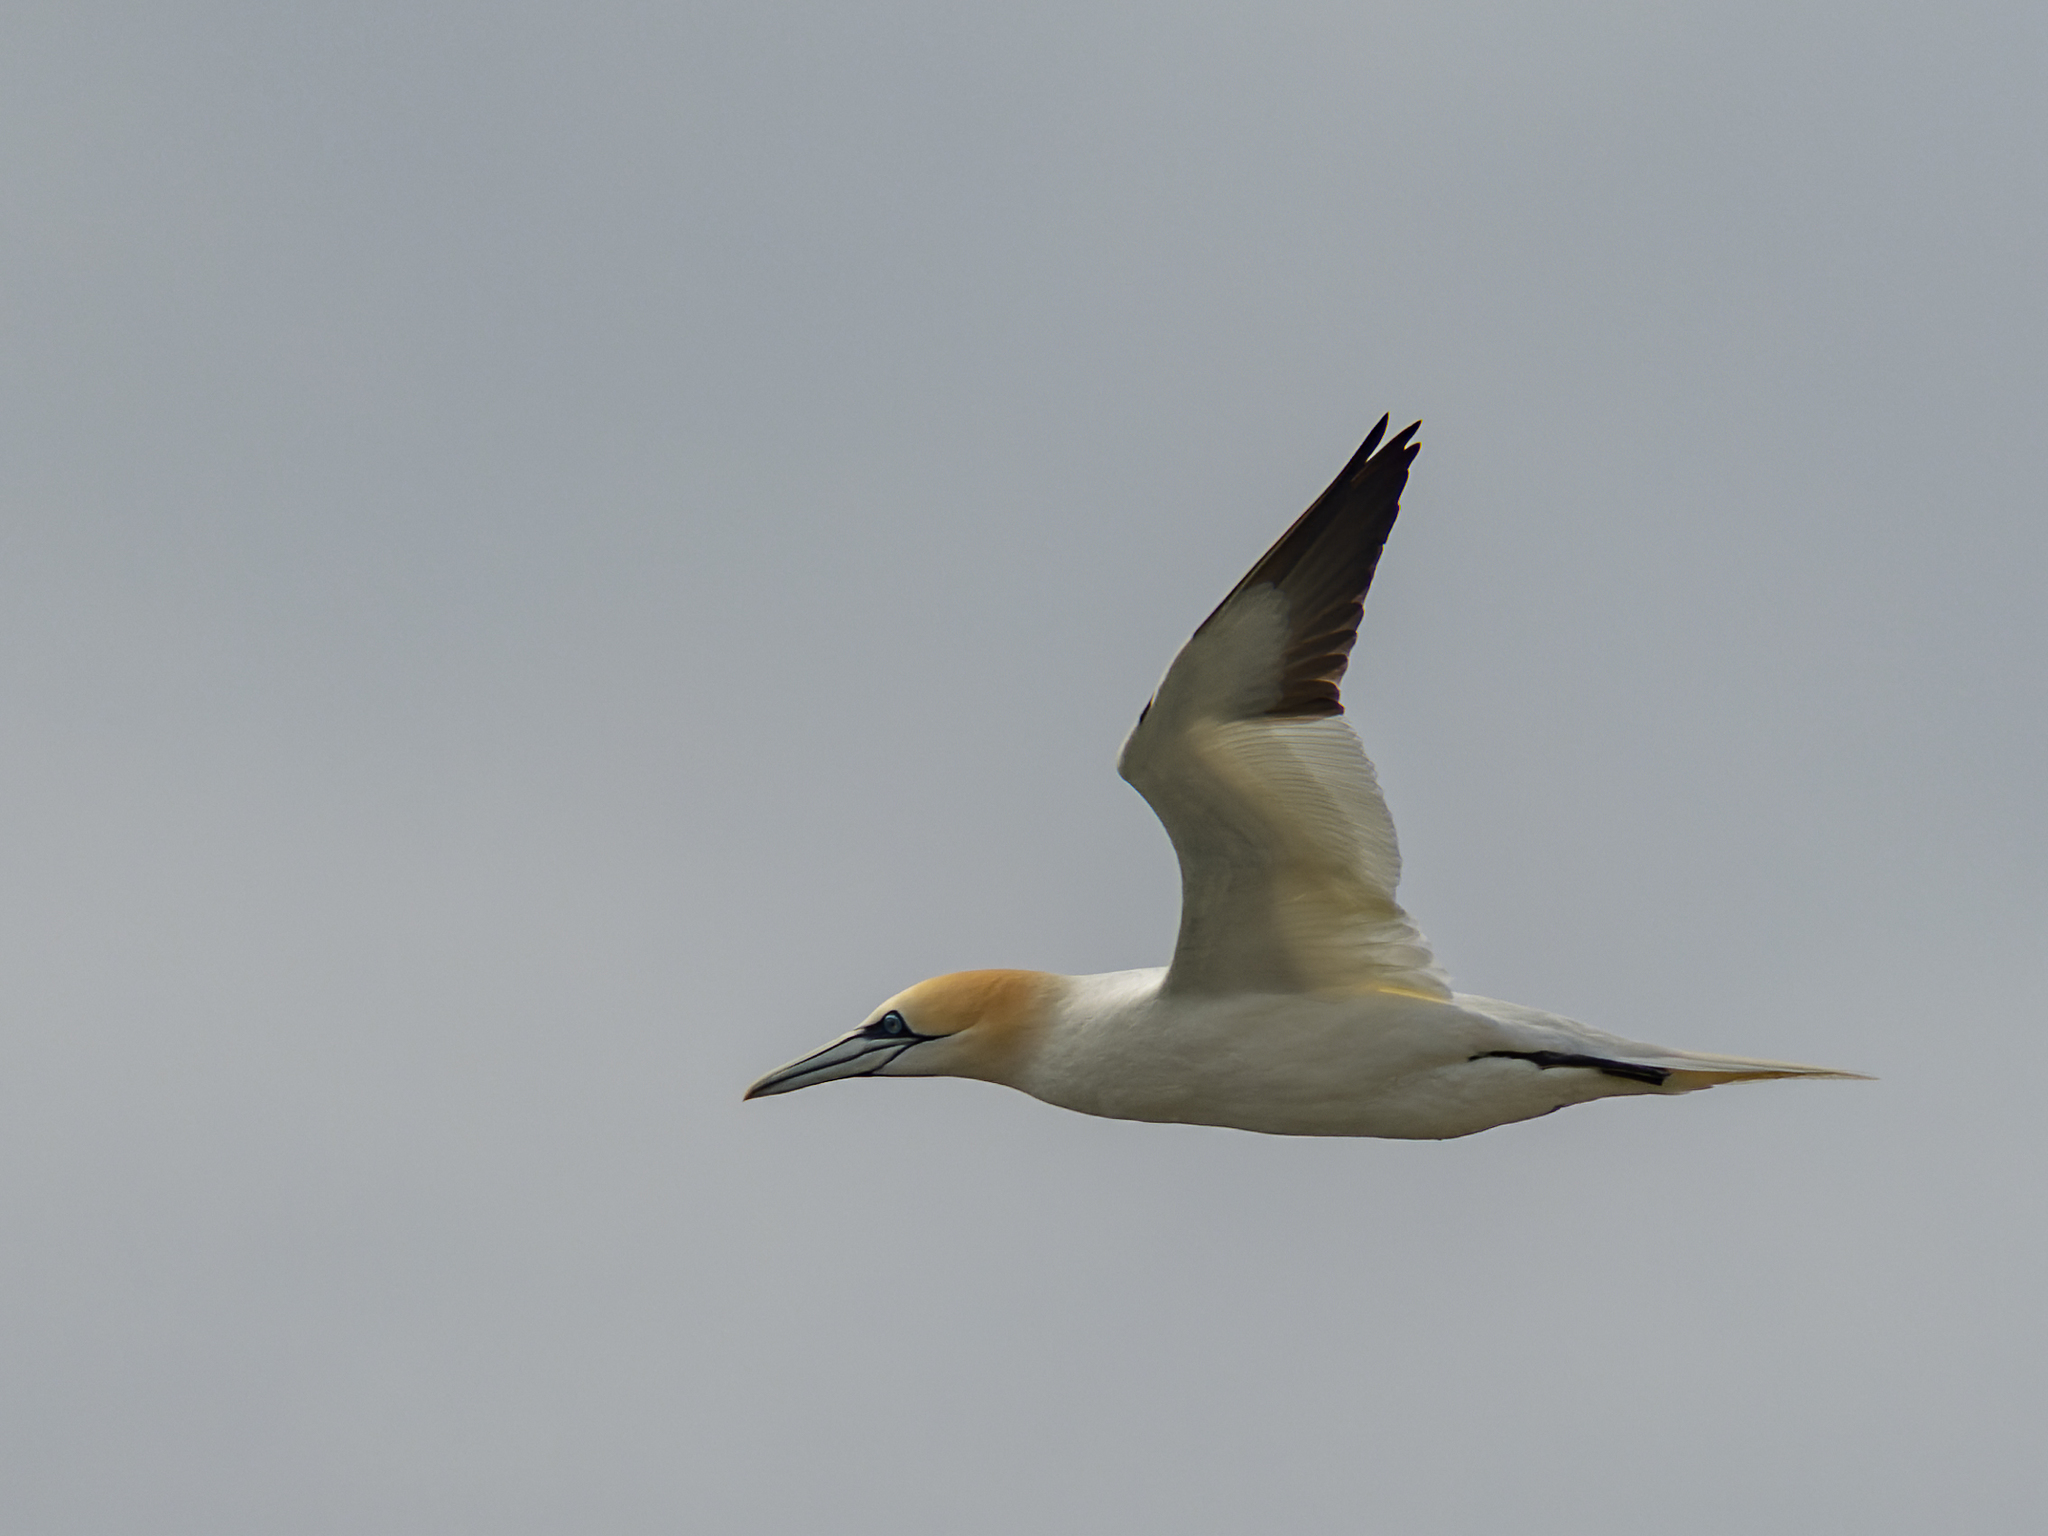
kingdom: Animalia
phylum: Chordata
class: Aves
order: Suliformes
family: Sulidae
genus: Morus
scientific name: Morus bassanus
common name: Northern gannet
